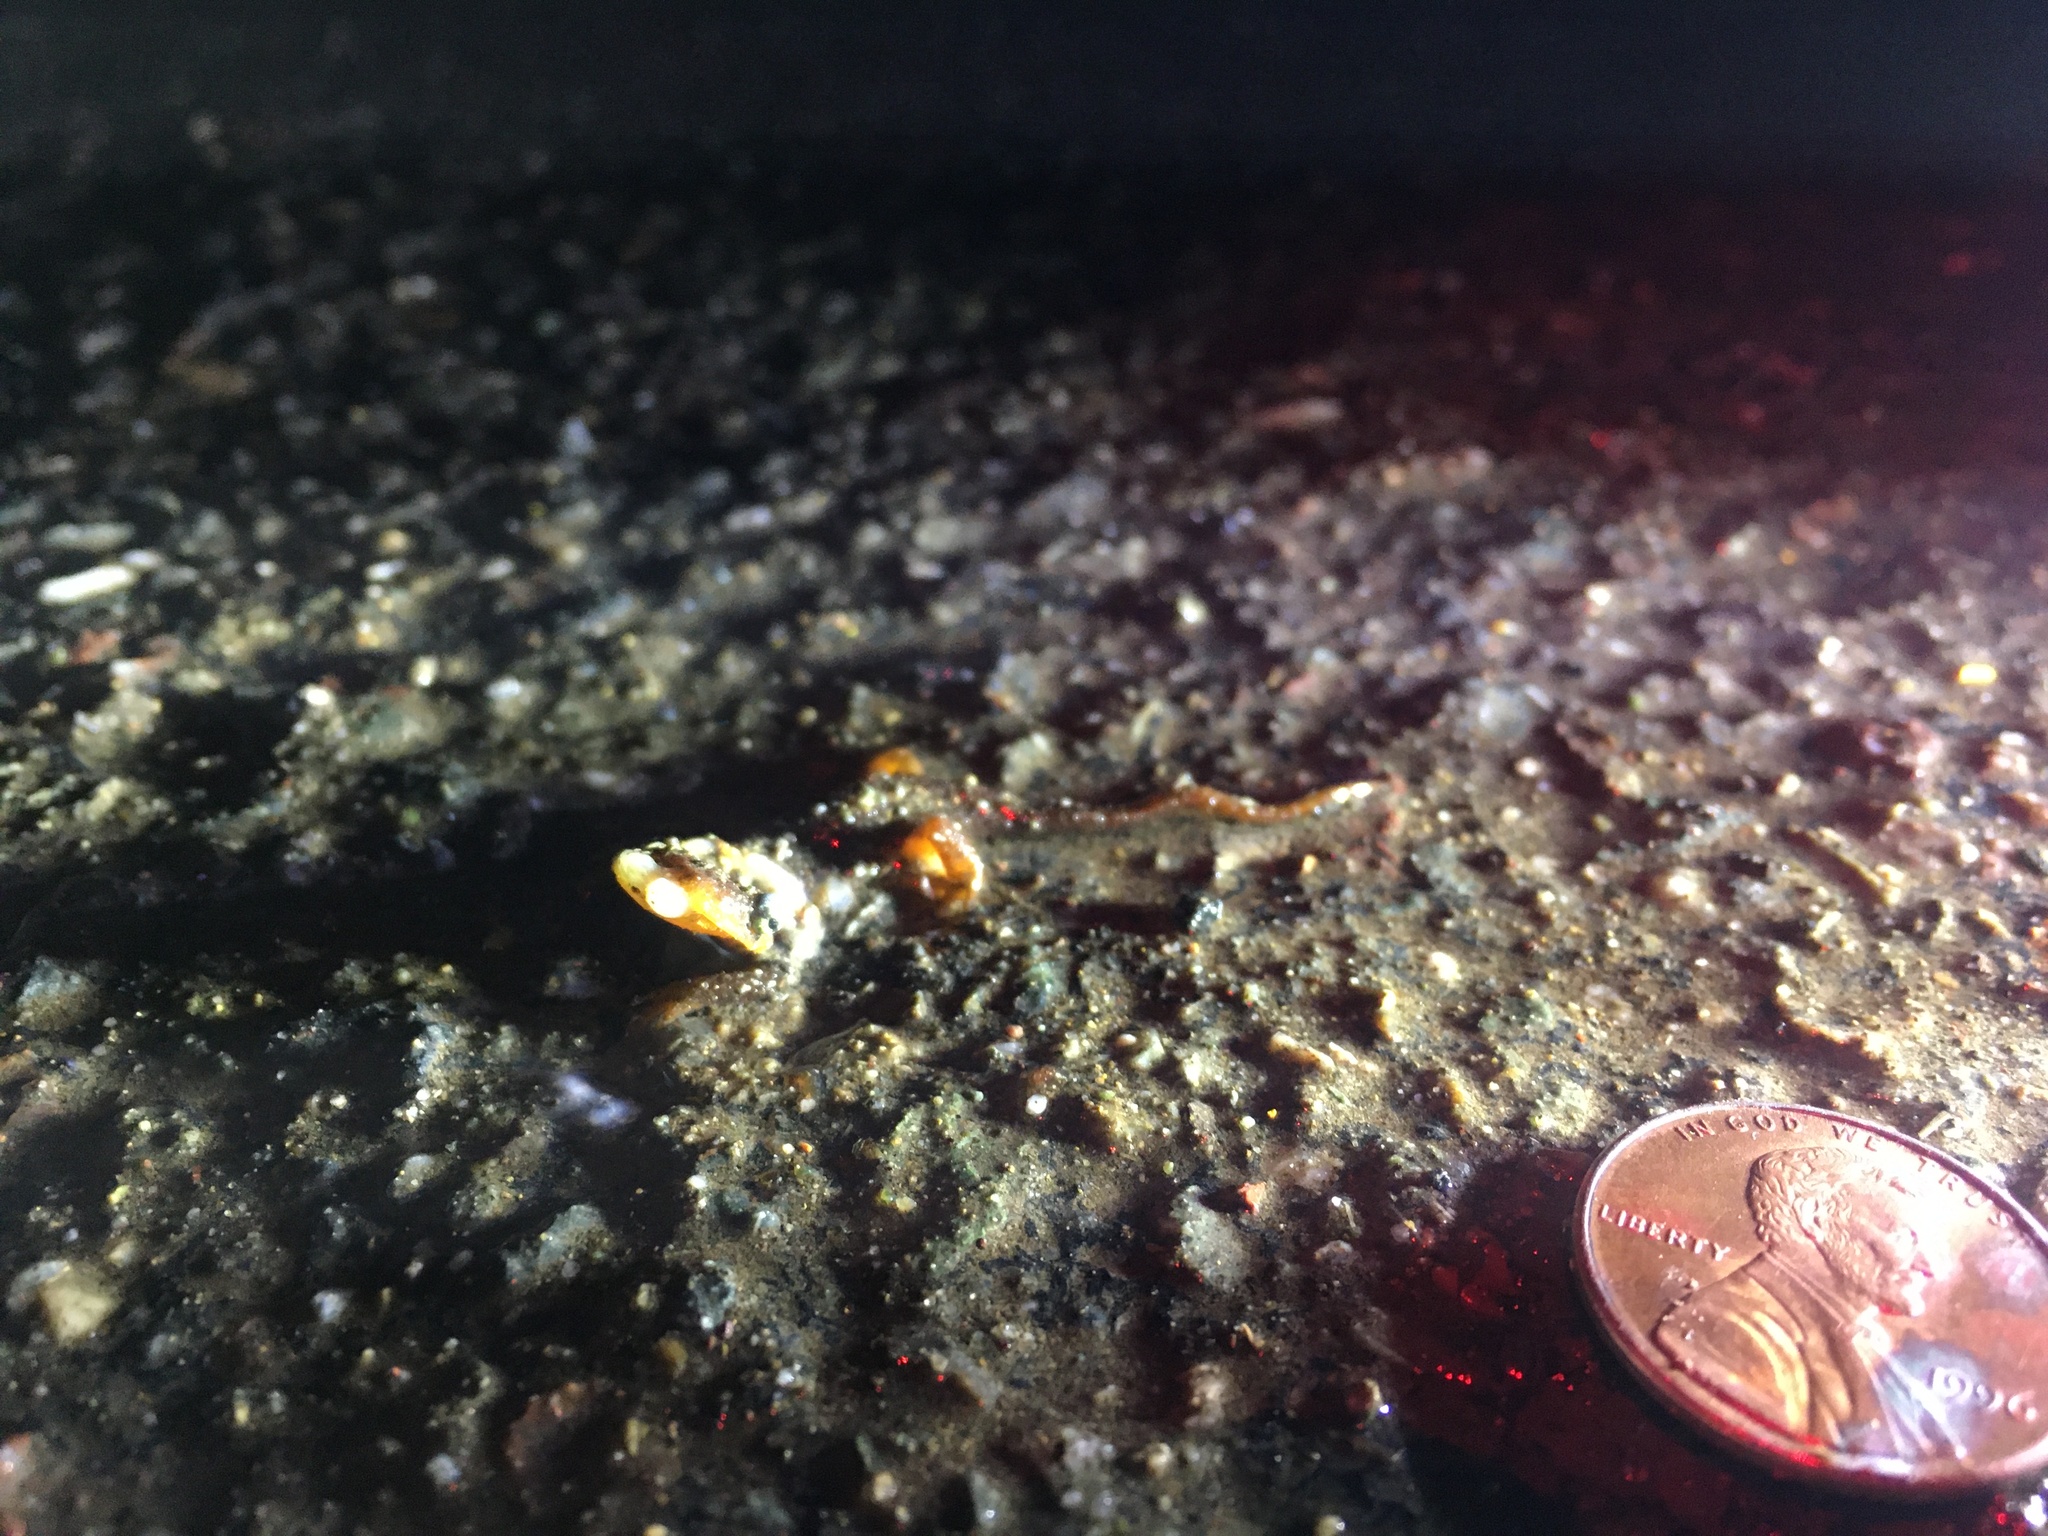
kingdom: Animalia
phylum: Chordata
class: Amphibia
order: Caudata
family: Salamandridae
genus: Taricha
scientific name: Taricha
